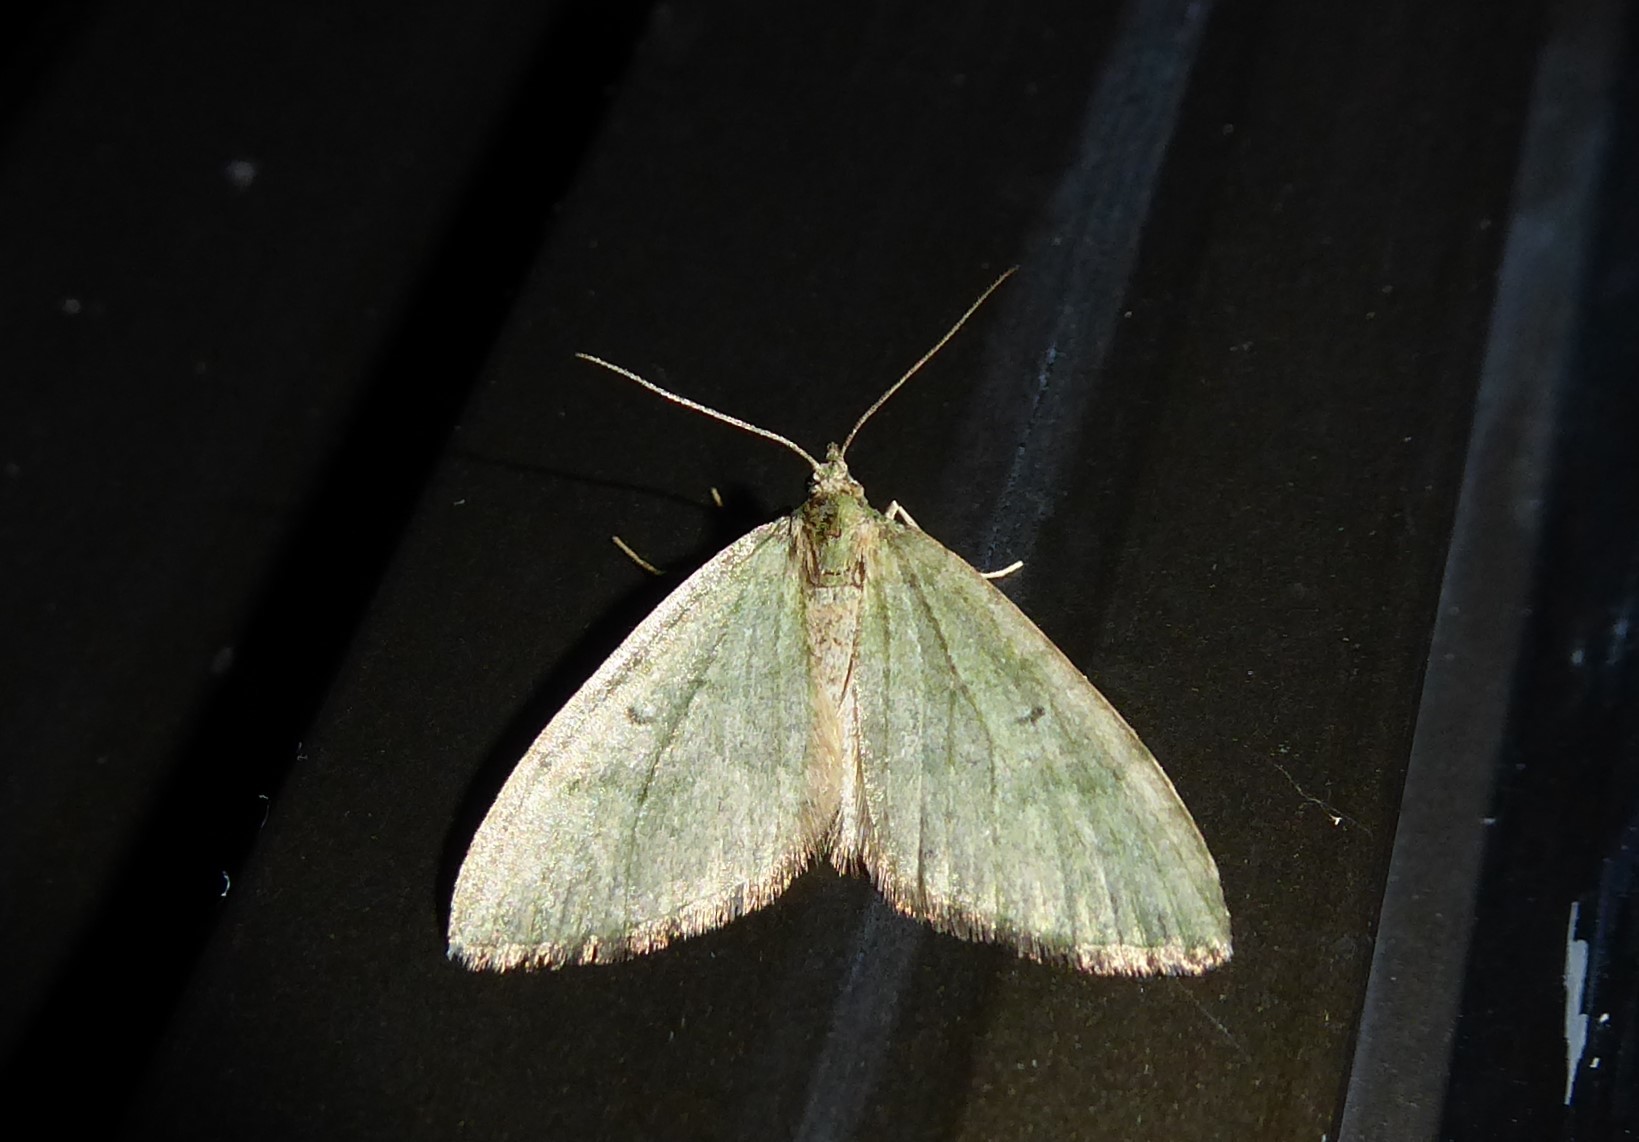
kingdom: Animalia
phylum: Arthropoda
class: Insecta
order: Lepidoptera
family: Geometridae
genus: Epyaxa
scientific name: Epyaxa rosearia
